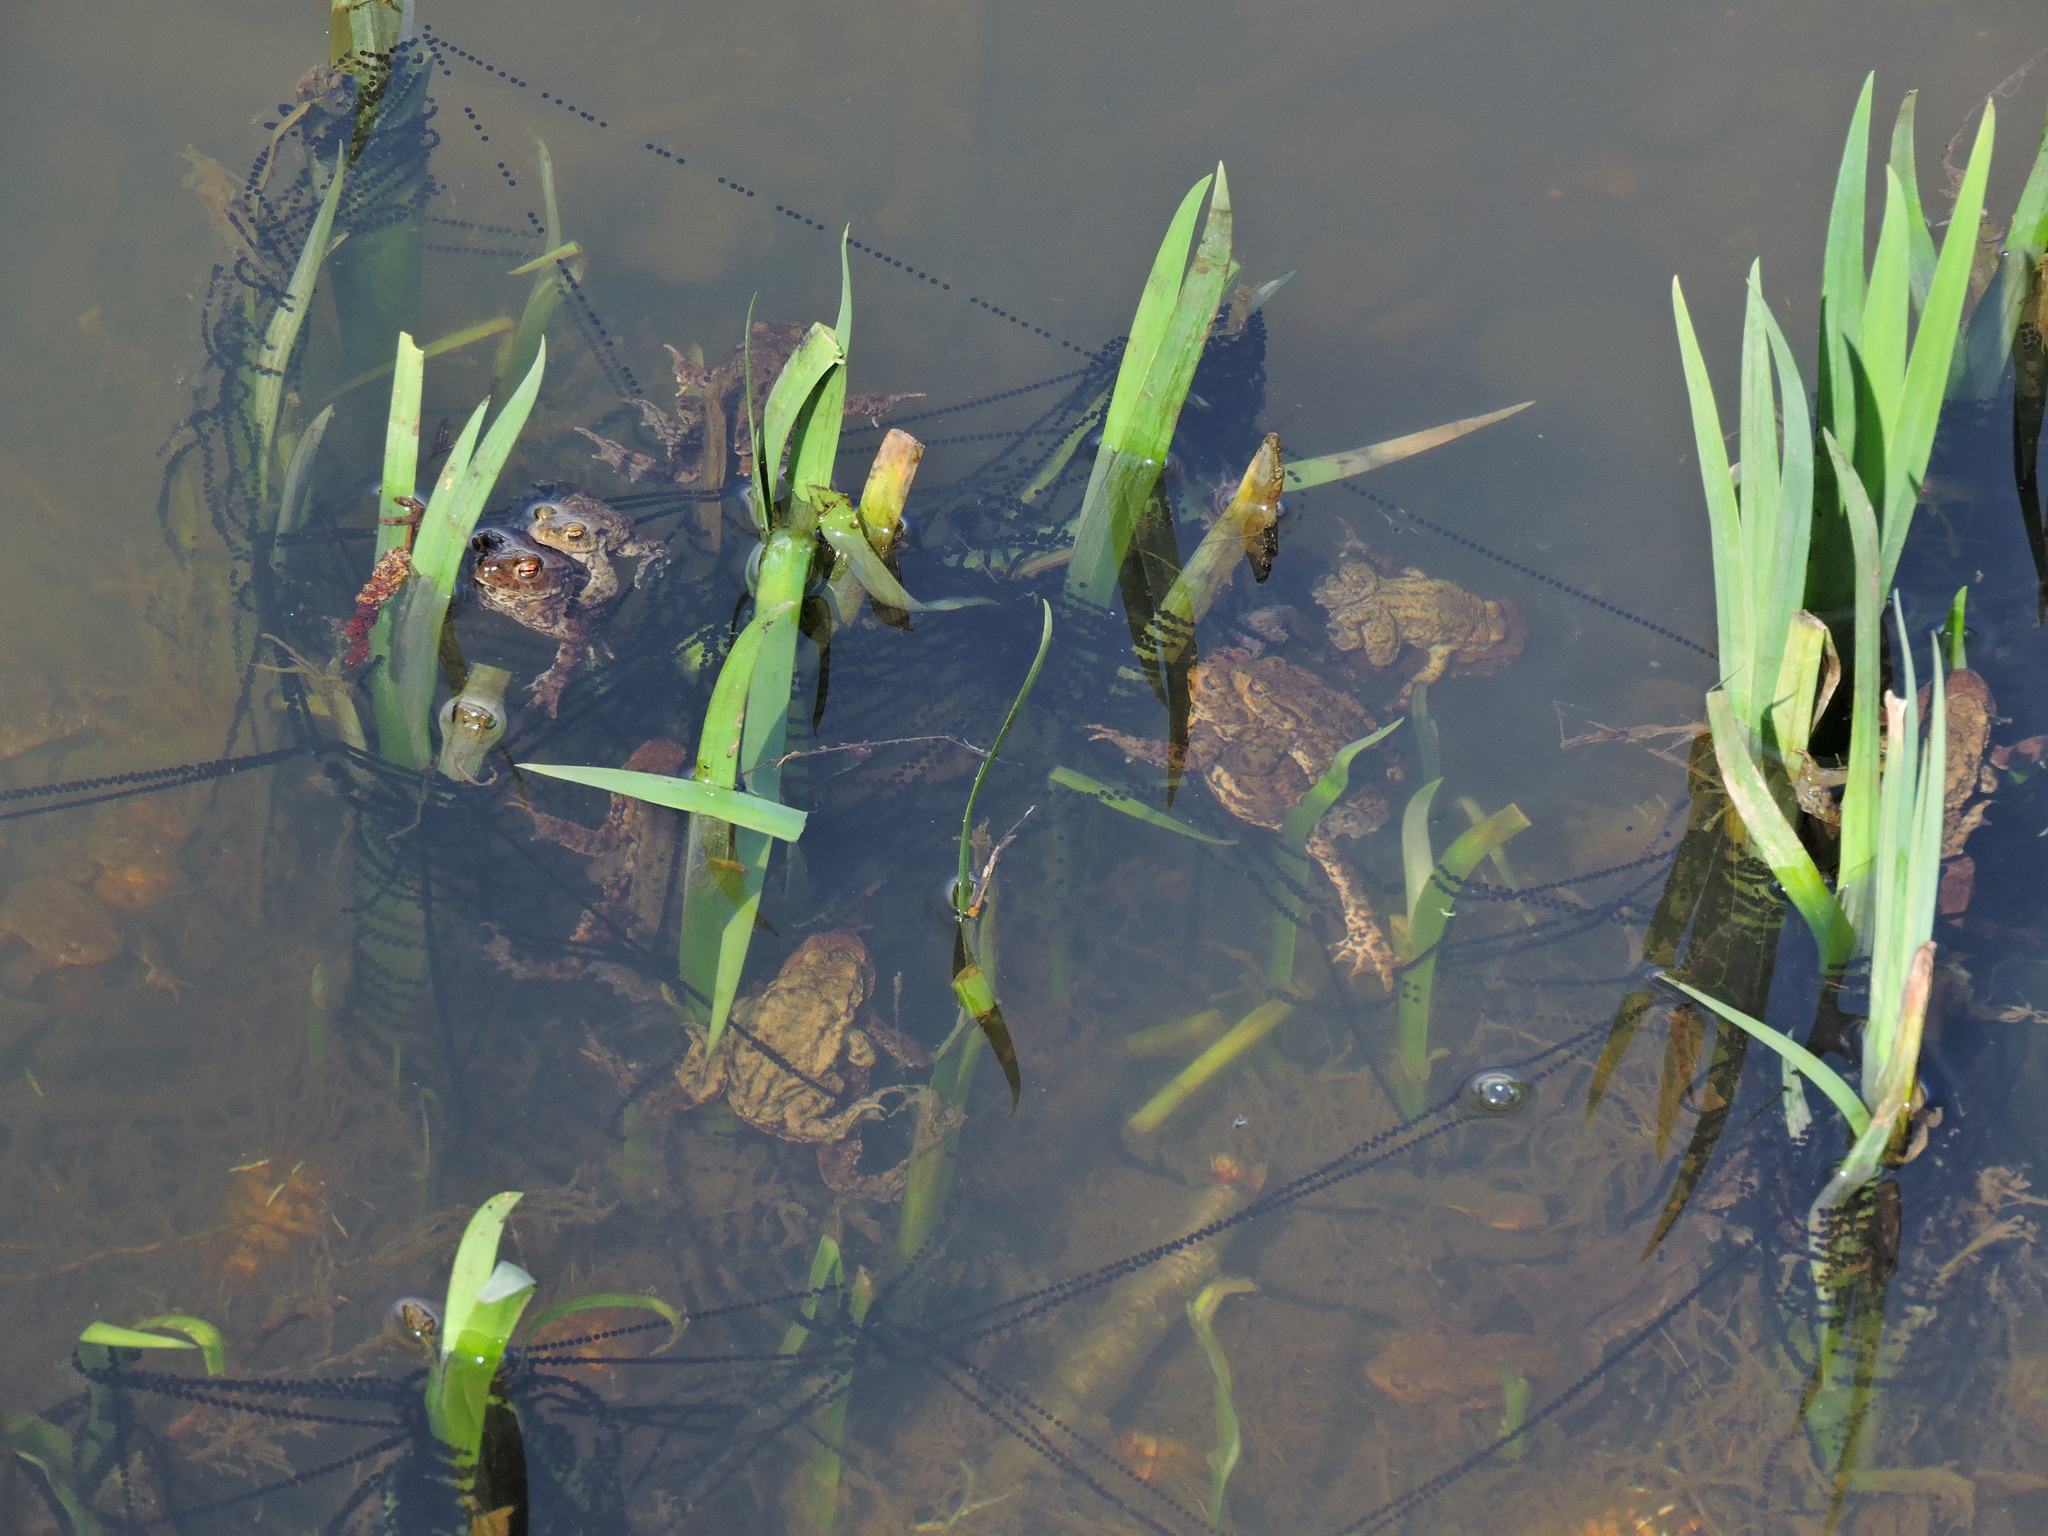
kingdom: Animalia
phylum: Chordata
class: Amphibia
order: Anura
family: Bufonidae
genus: Bufo
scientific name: Bufo bufo
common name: Common toad
